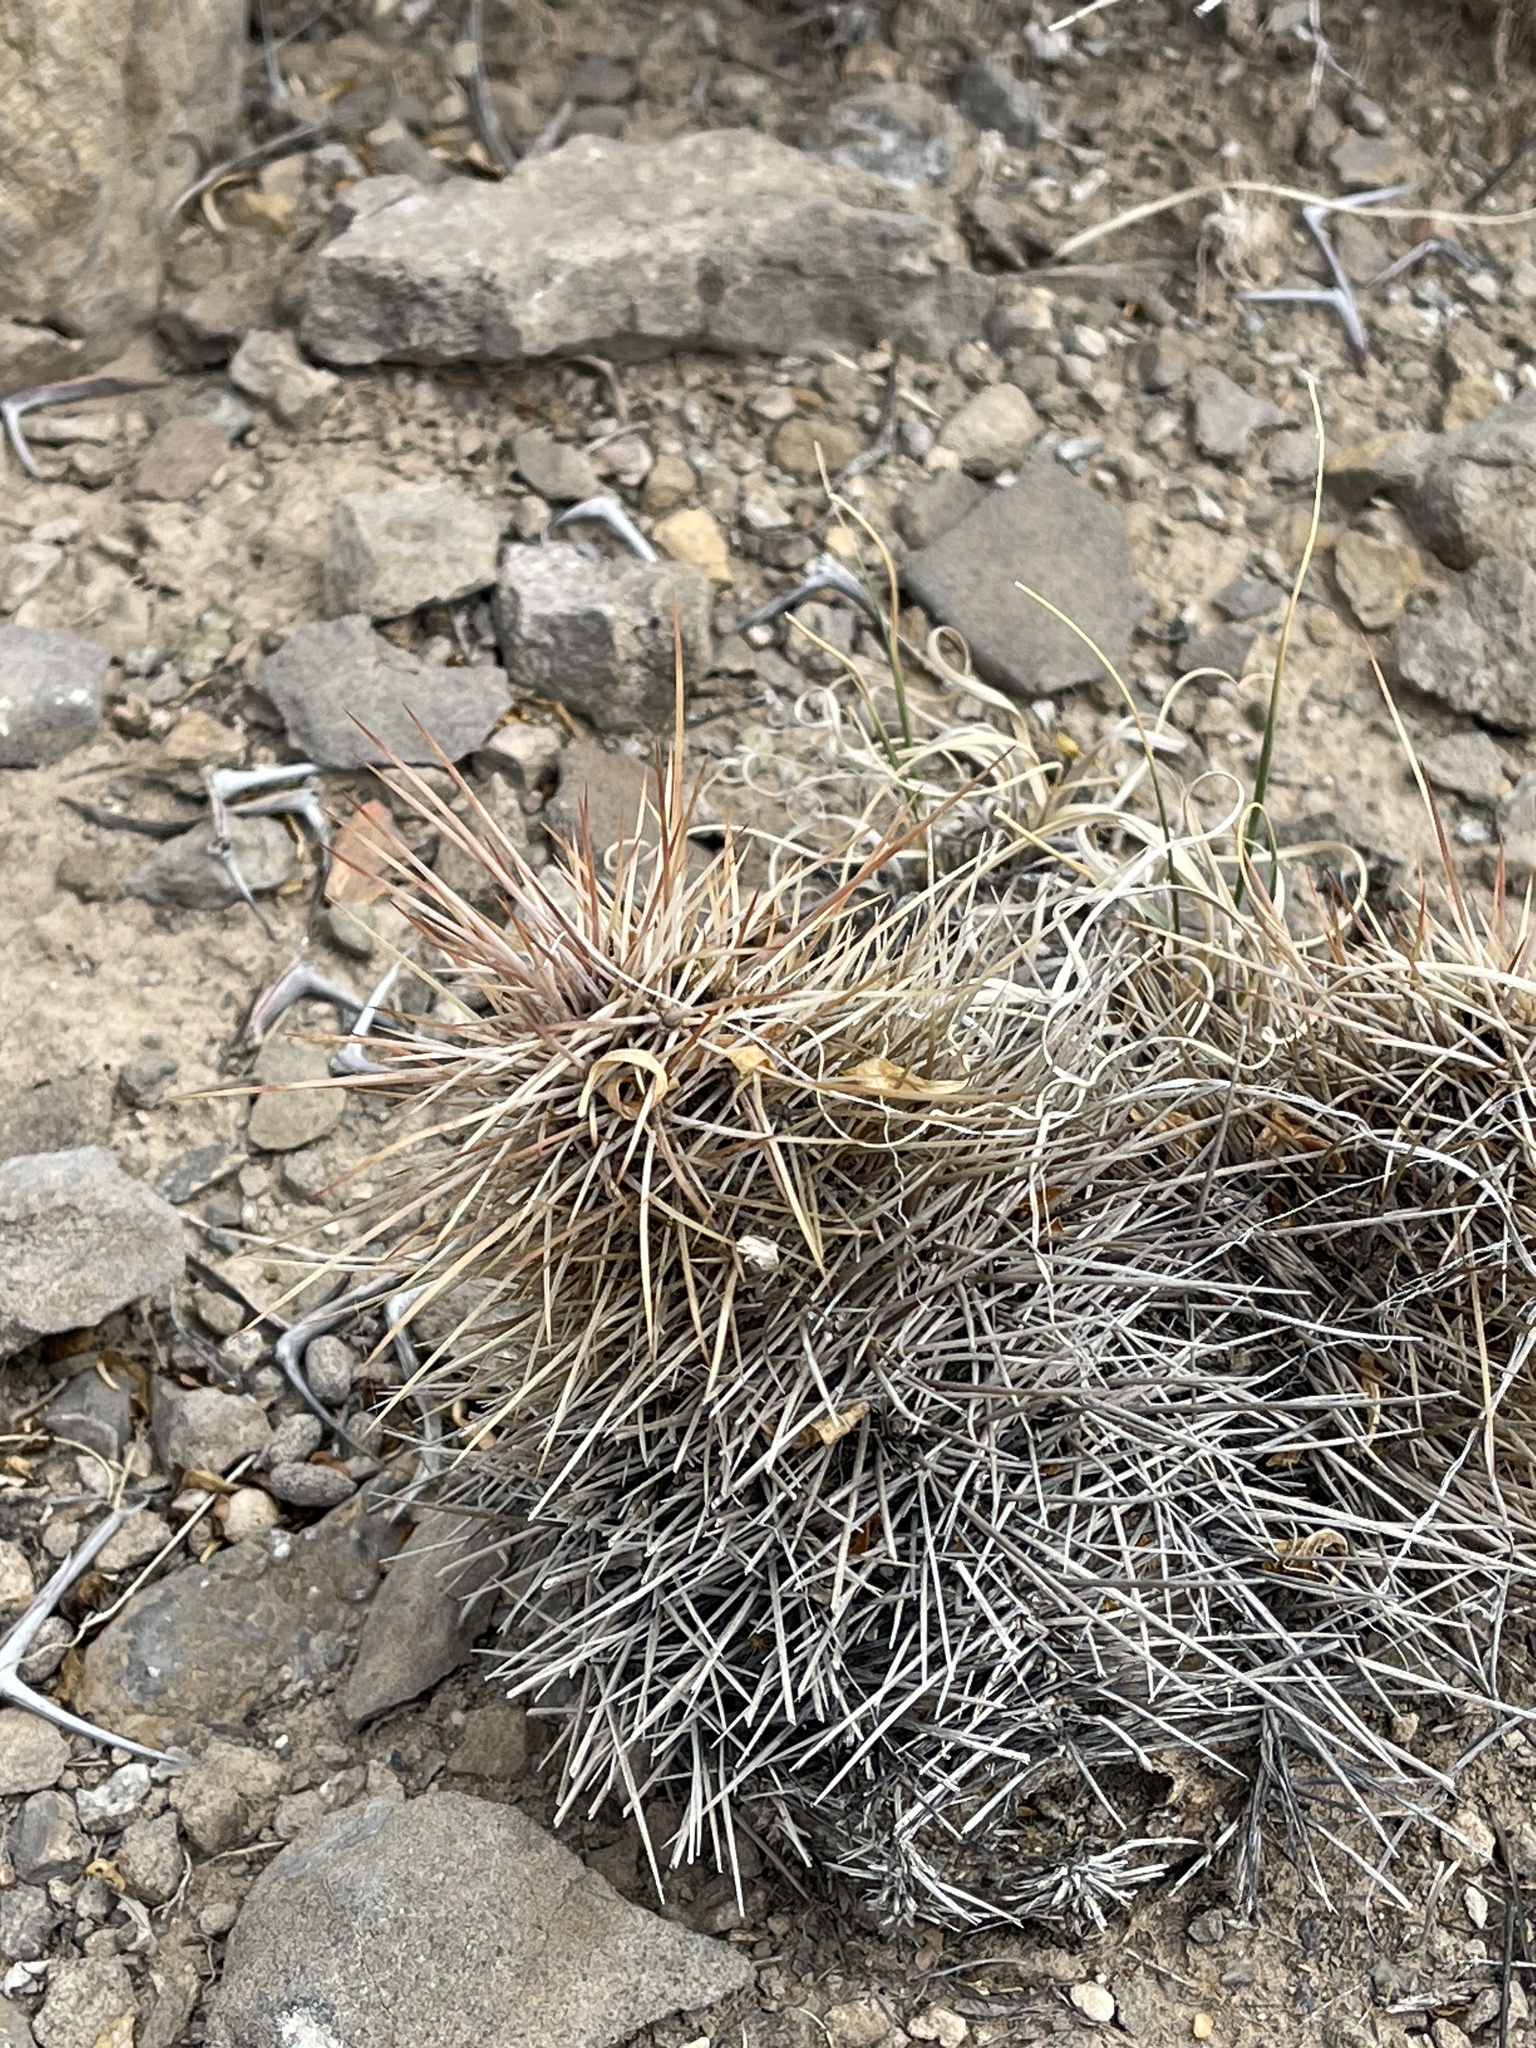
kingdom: Plantae
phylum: Tracheophyta
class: Magnoliopsida
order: Caryophyllales
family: Cactaceae
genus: Echinocereus
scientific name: Echinocereus coccineus
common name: Scarlet hedgehog cactus
